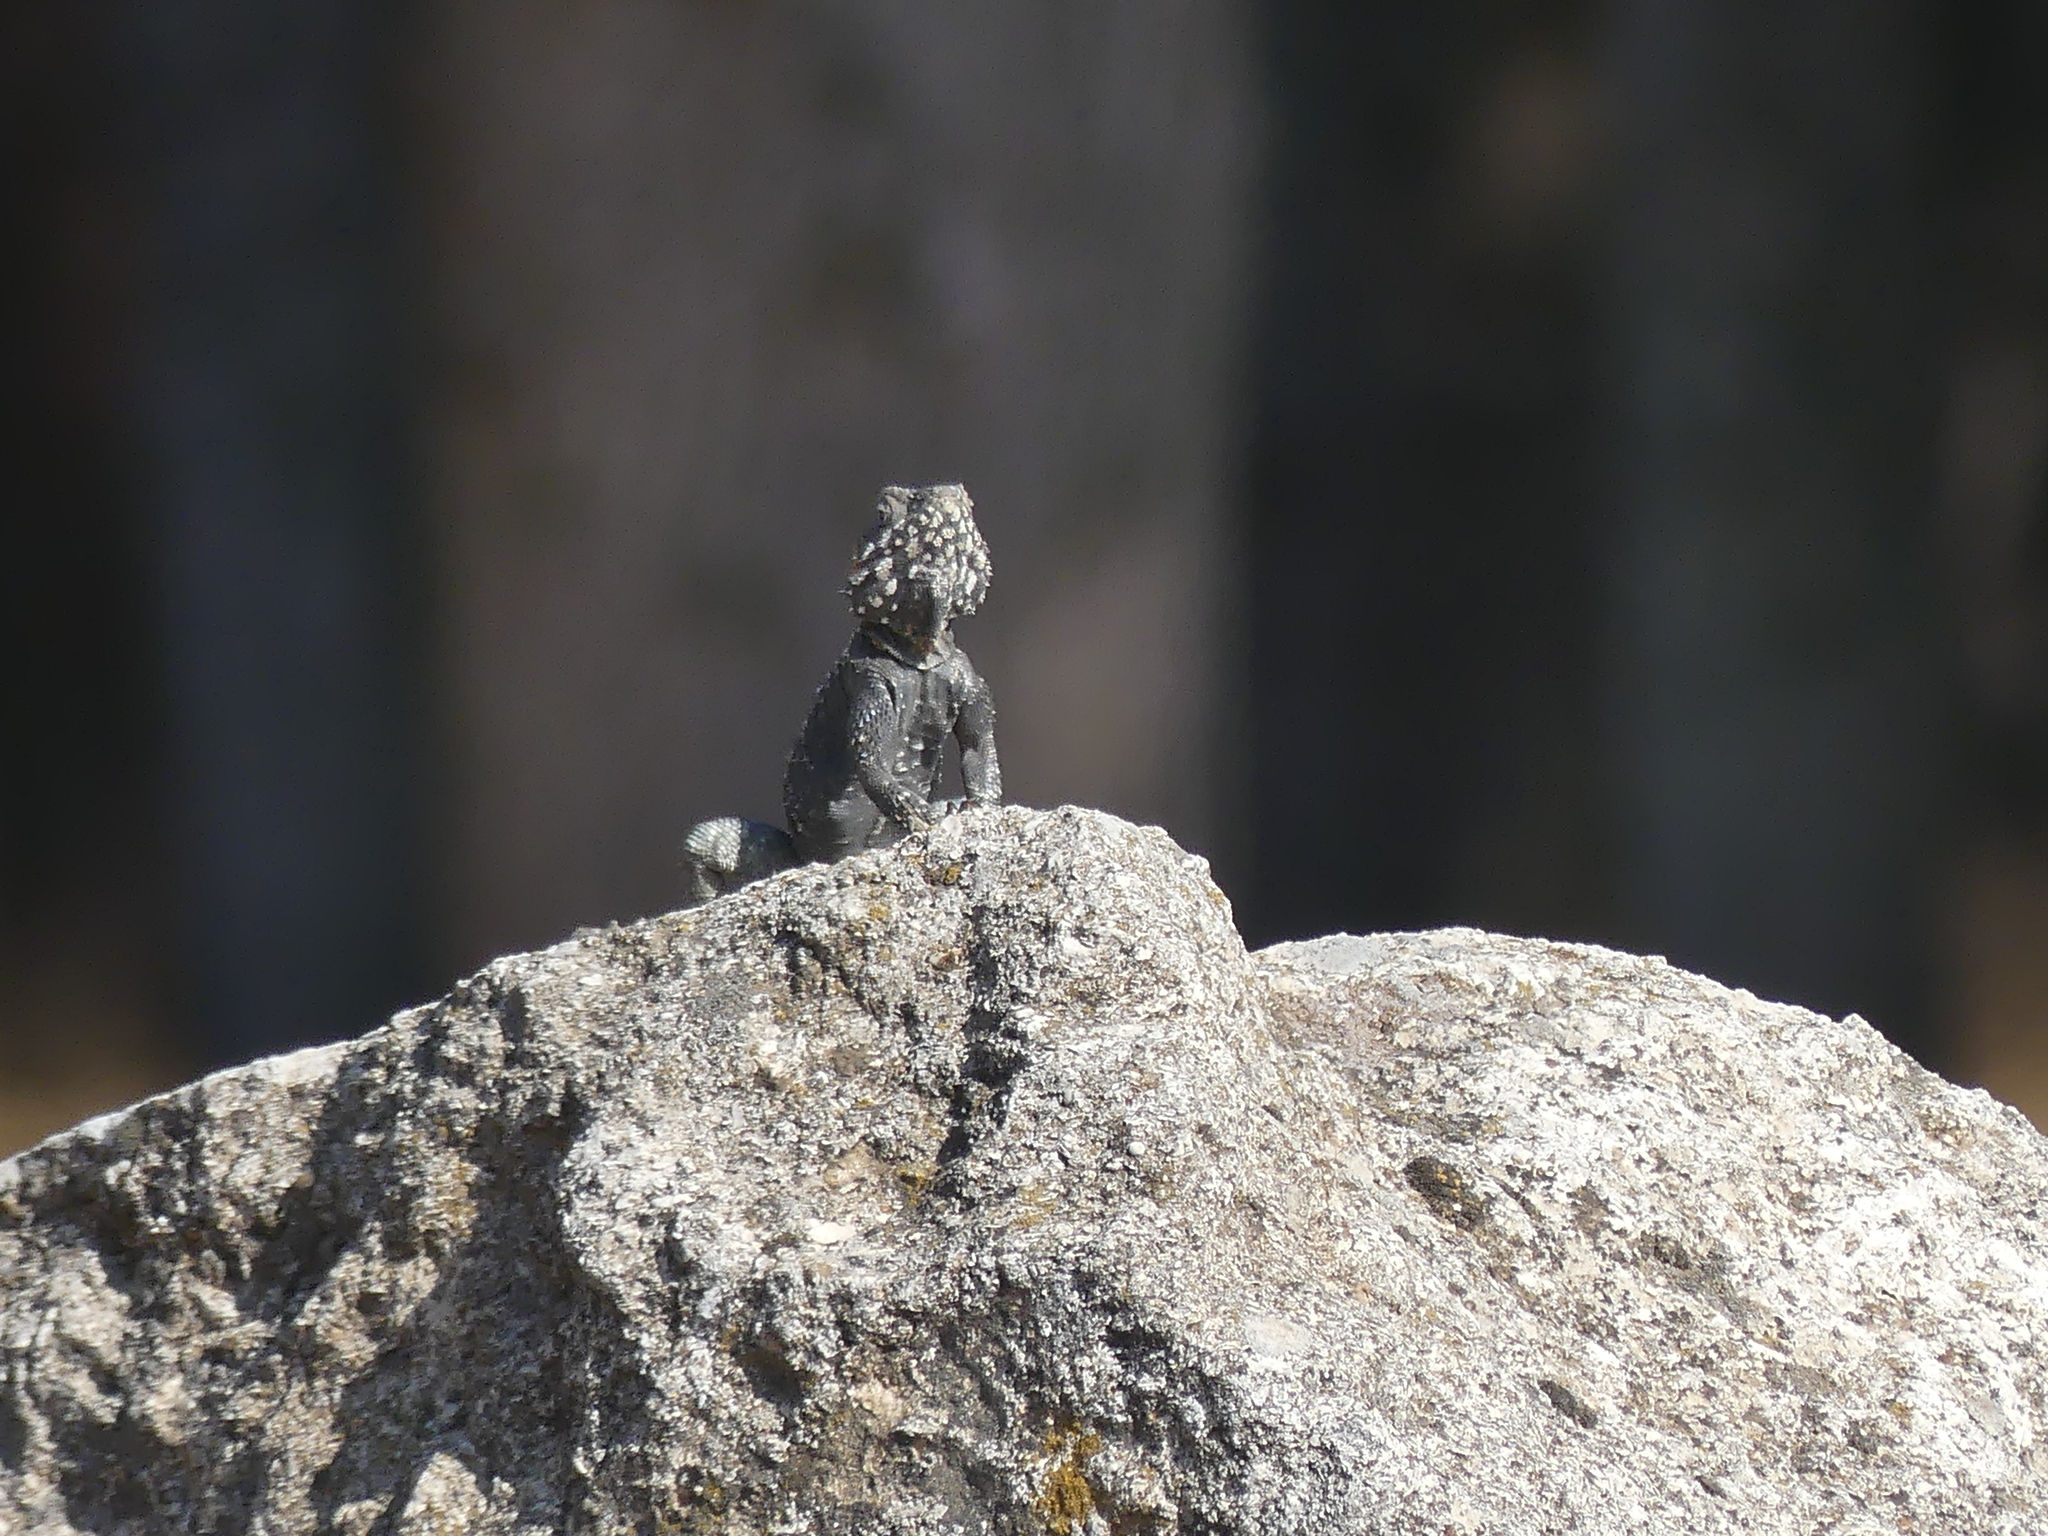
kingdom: Animalia
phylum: Chordata
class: Squamata
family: Agamidae
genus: Laudakia
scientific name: Laudakia vulgaris
